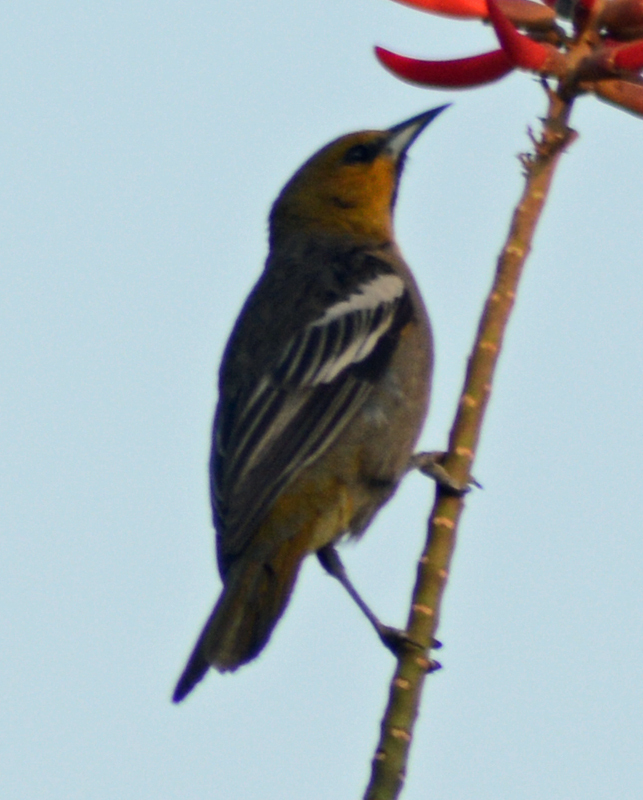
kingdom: Animalia
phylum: Chordata
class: Aves
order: Passeriformes
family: Icteridae
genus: Icterus
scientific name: Icterus abeillei
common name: Black-backed oriole
